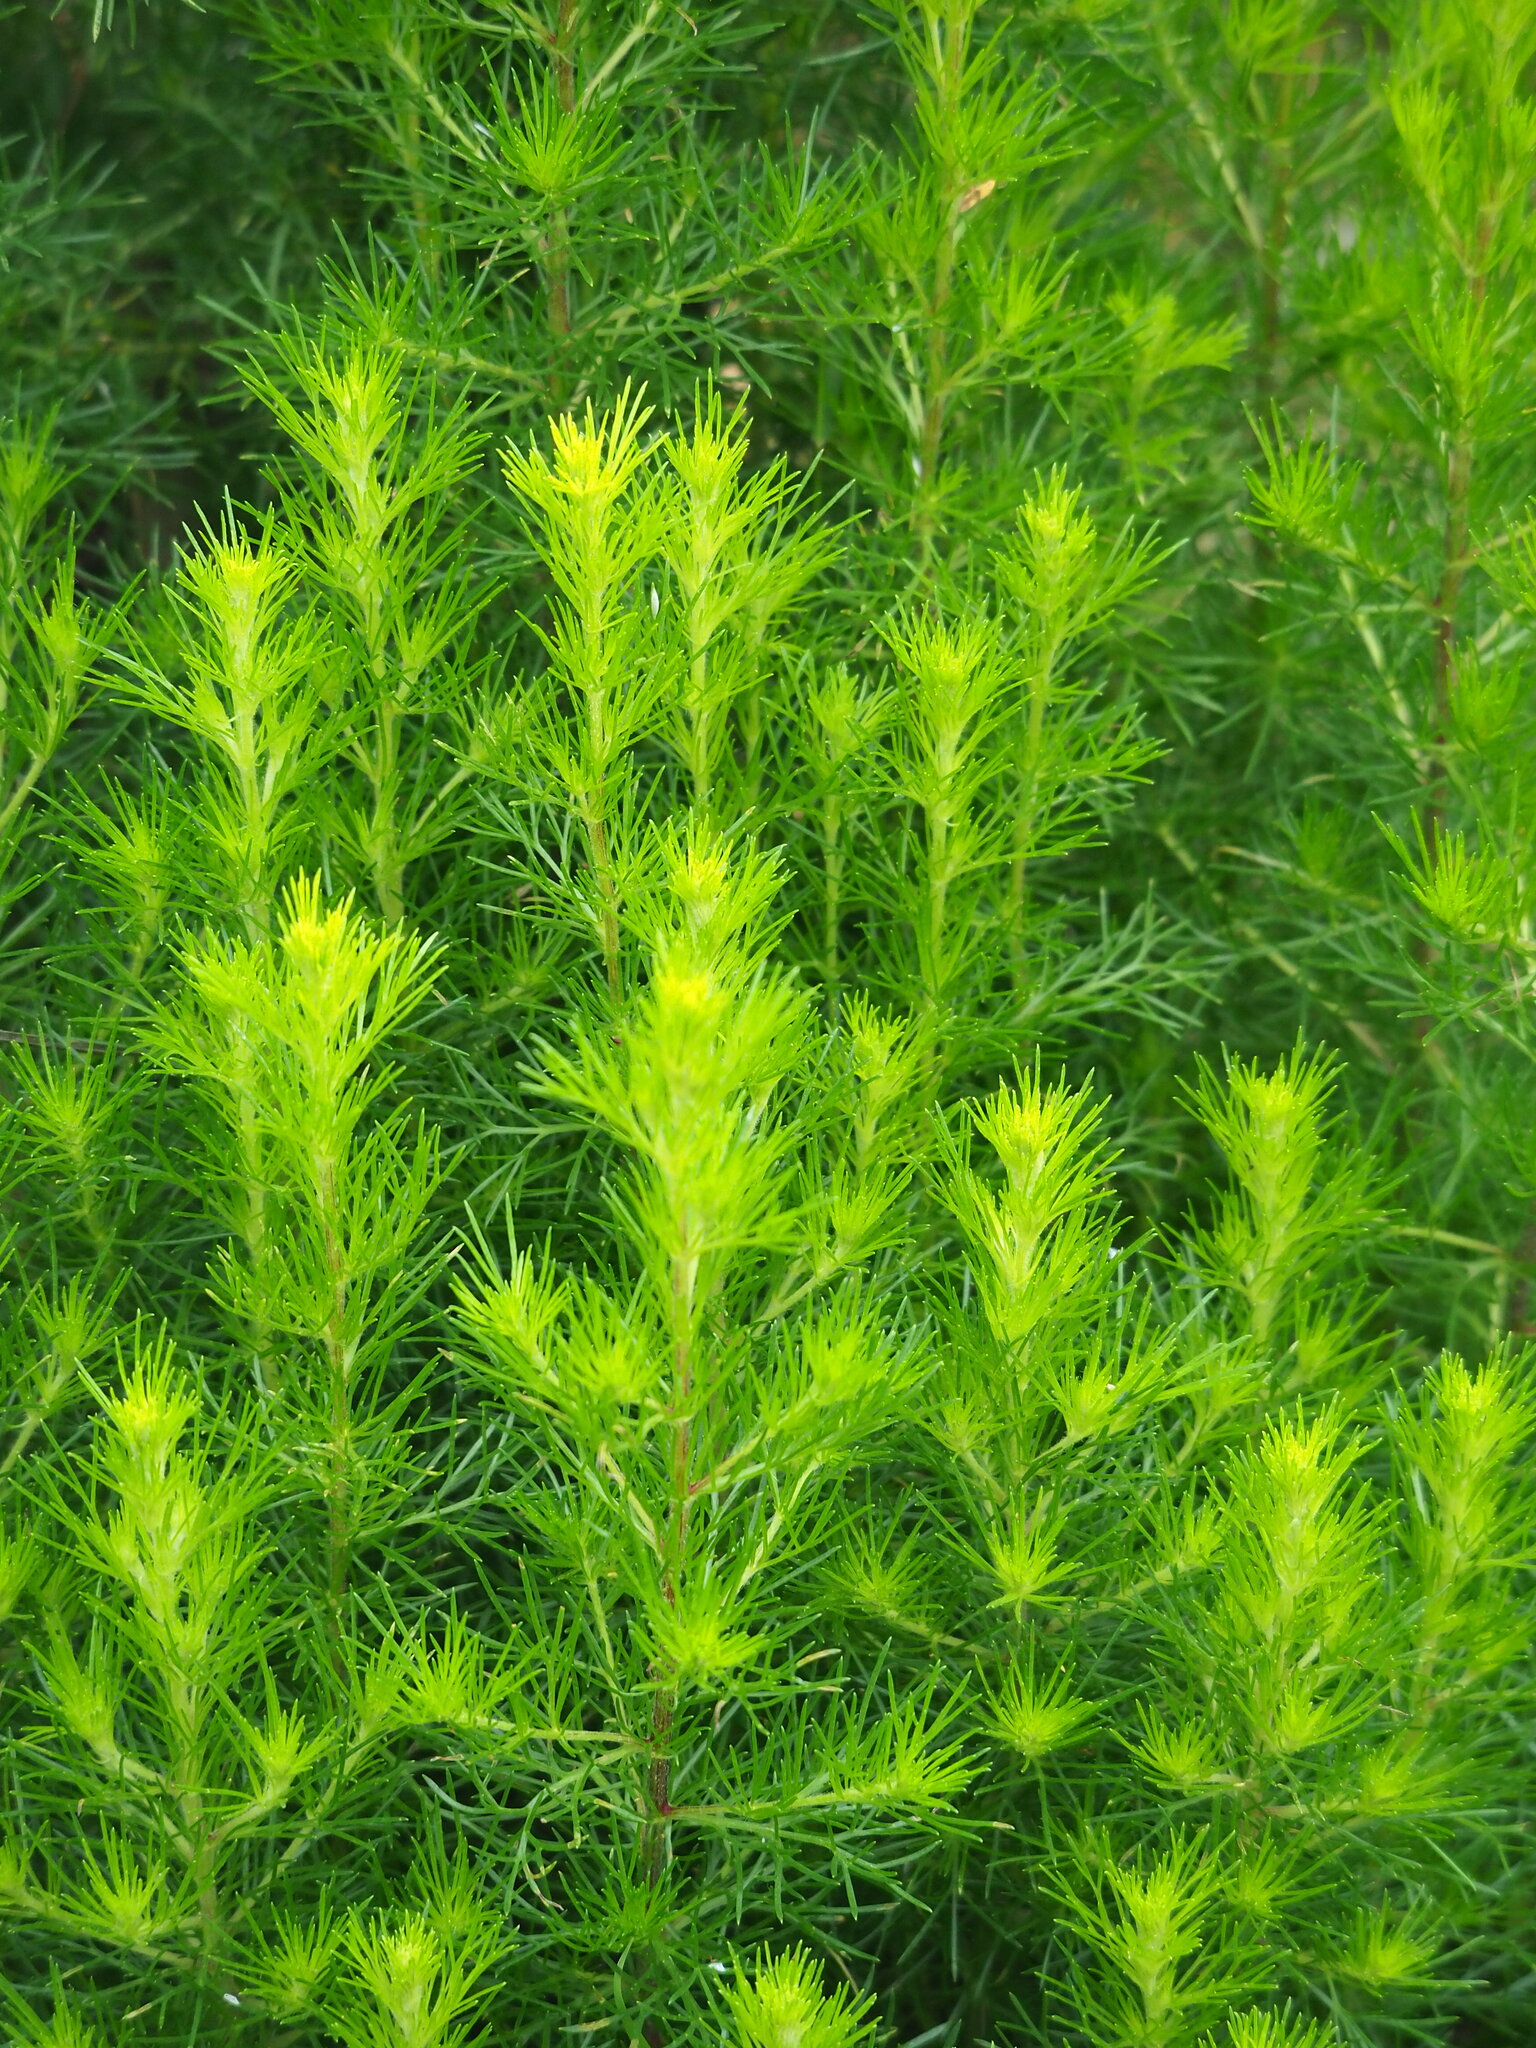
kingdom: Plantae
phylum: Tracheophyta
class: Magnoliopsida
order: Asterales
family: Asteraceae
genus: Artemisia
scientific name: Artemisia capillaris
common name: Yin-chen wormwood
